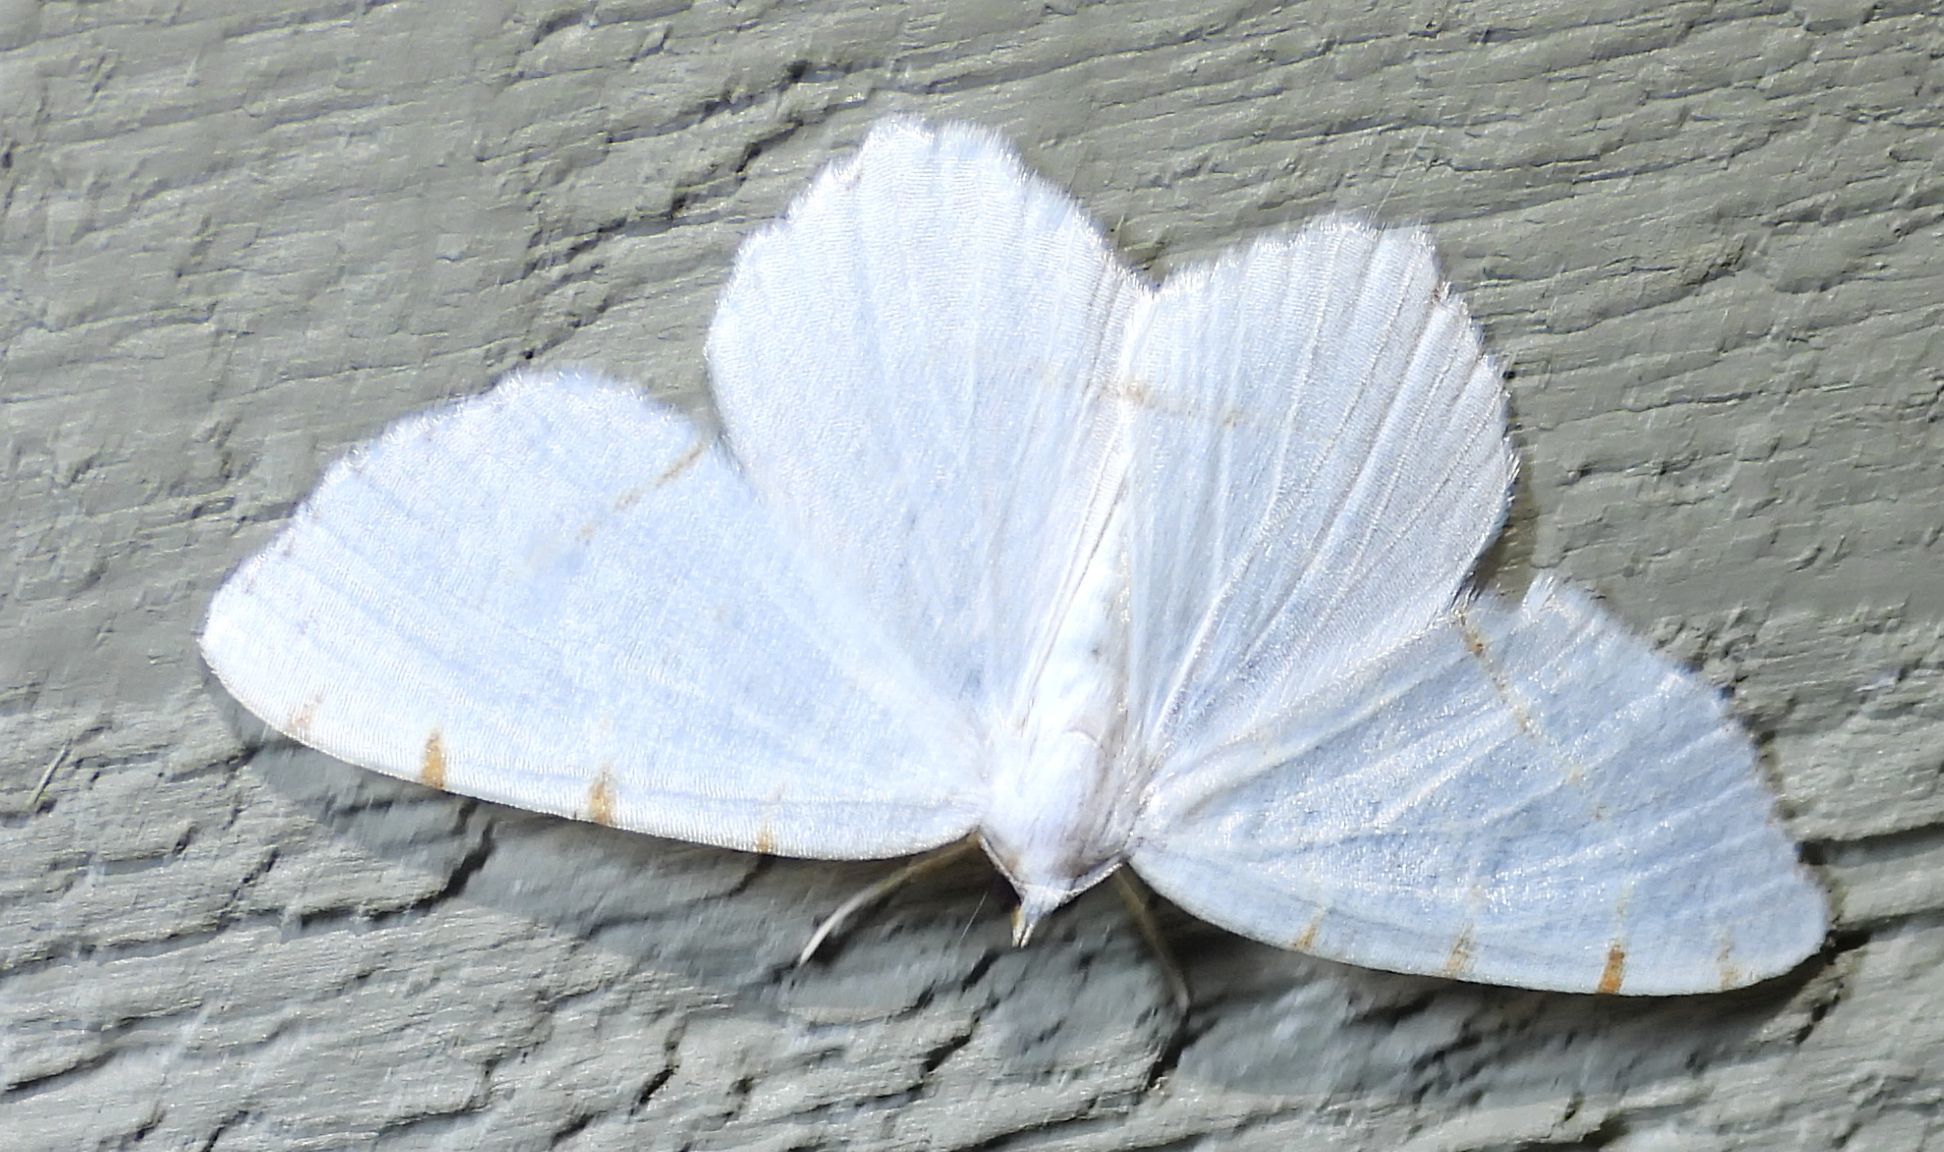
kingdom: Animalia
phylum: Arthropoda
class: Insecta
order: Lepidoptera
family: Geometridae
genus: Macaria
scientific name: Macaria pustularia
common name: Lesser maple spanworm moth
